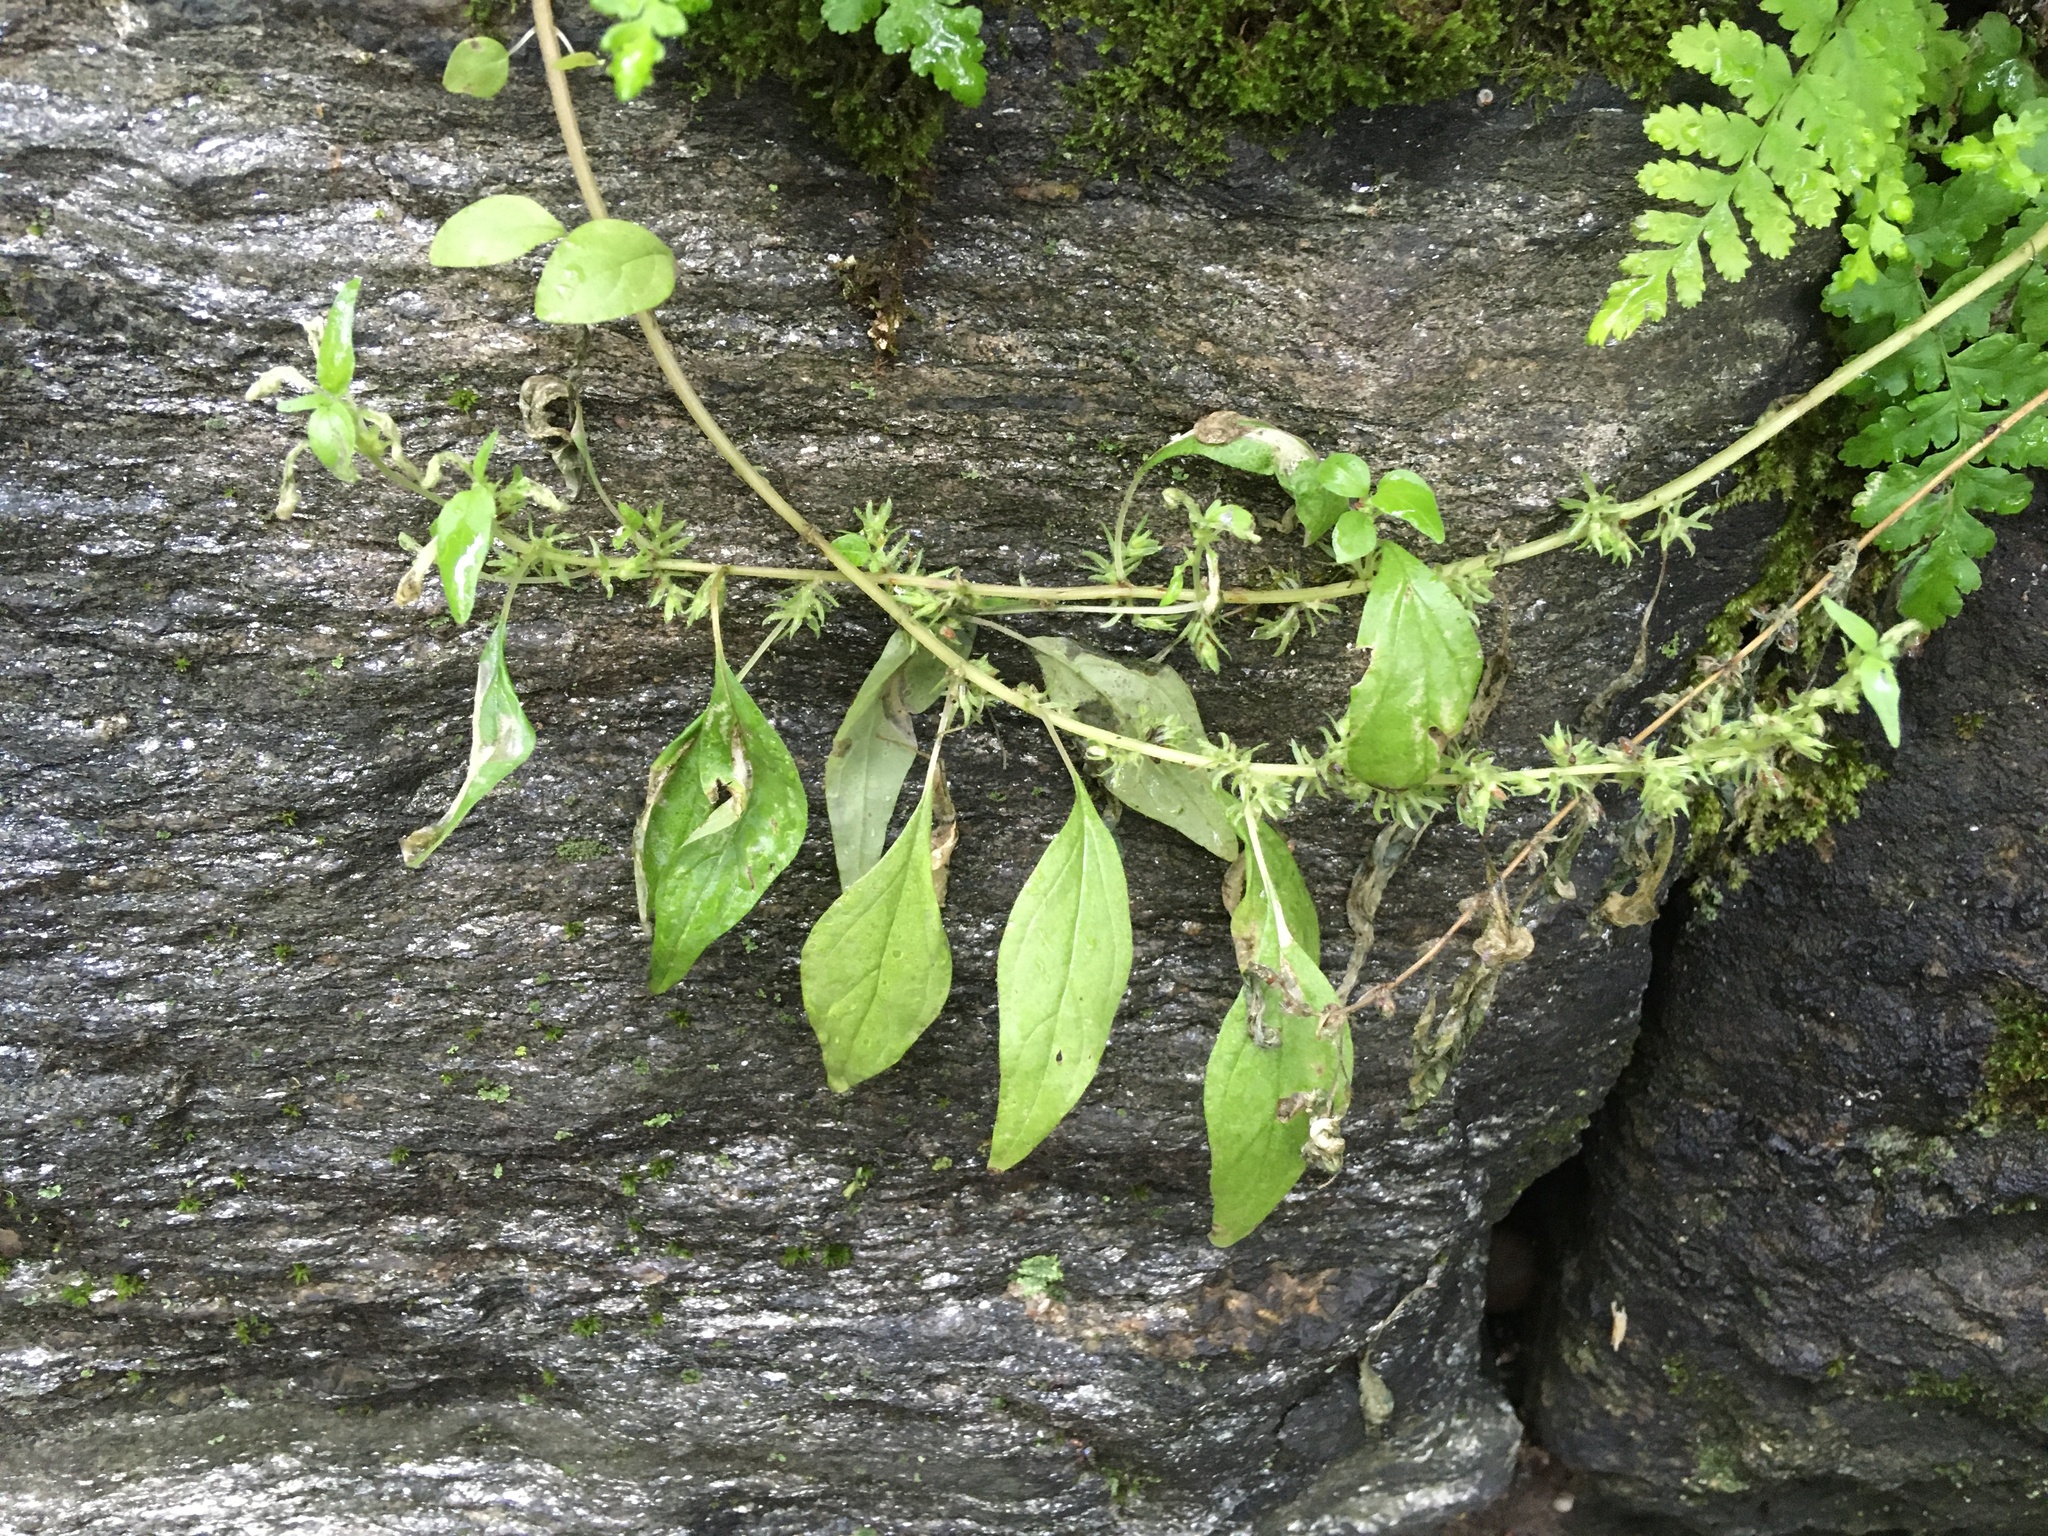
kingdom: Plantae
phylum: Tracheophyta
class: Magnoliopsida
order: Rosales
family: Urticaceae
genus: Parietaria
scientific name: Parietaria pensylvanica
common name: Pennsylvania pellitory
